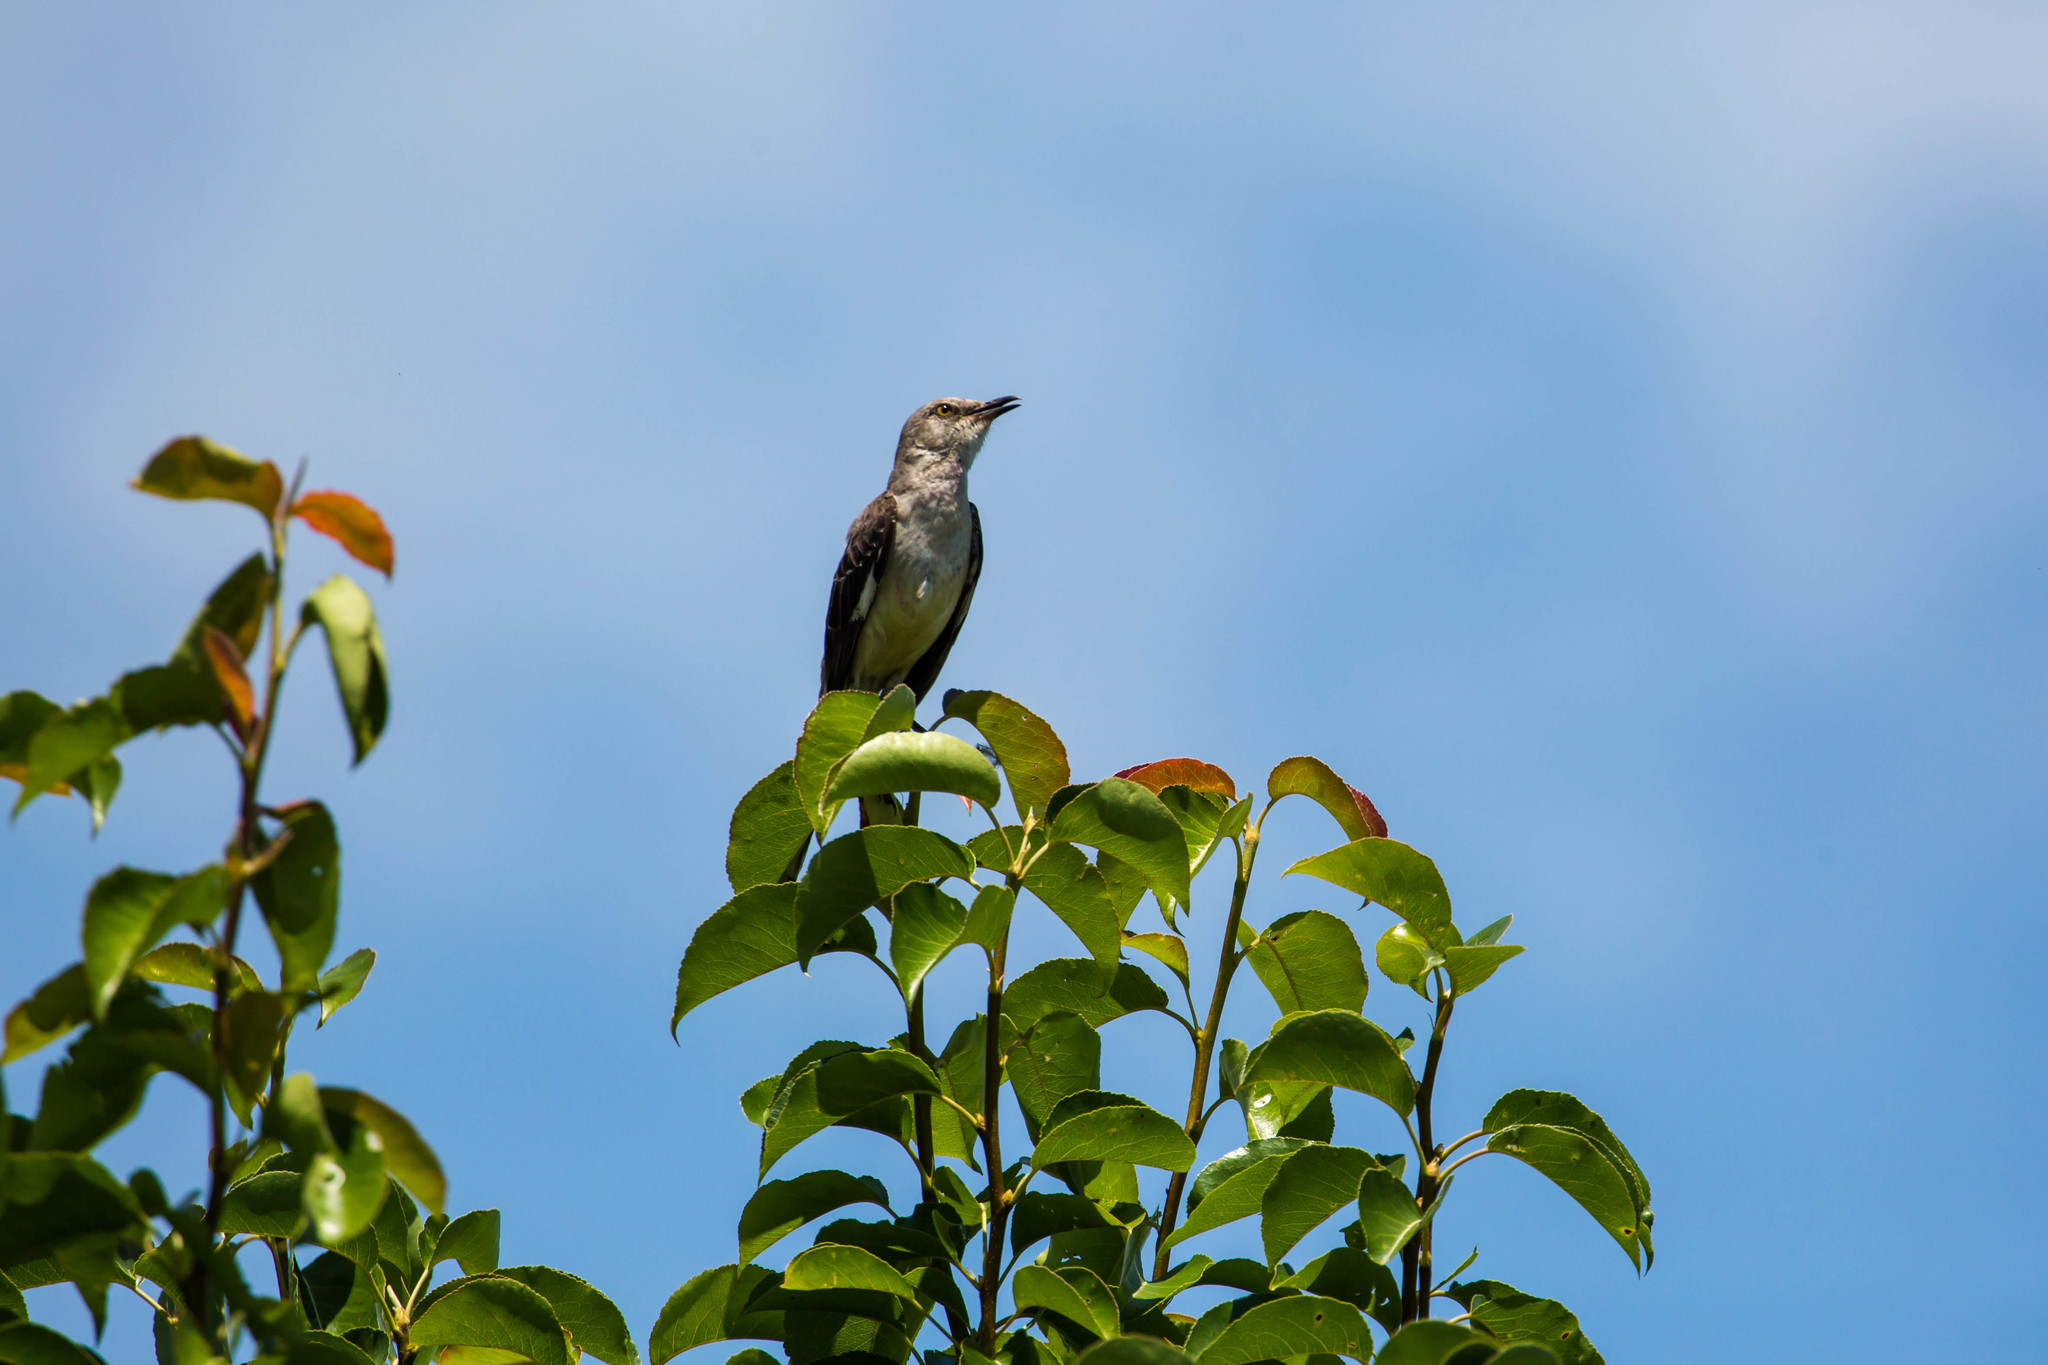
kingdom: Animalia
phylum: Chordata
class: Aves
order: Passeriformes
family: Mimidae
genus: Mimus
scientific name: Mimus polyglottos
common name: Northern mockingbird
